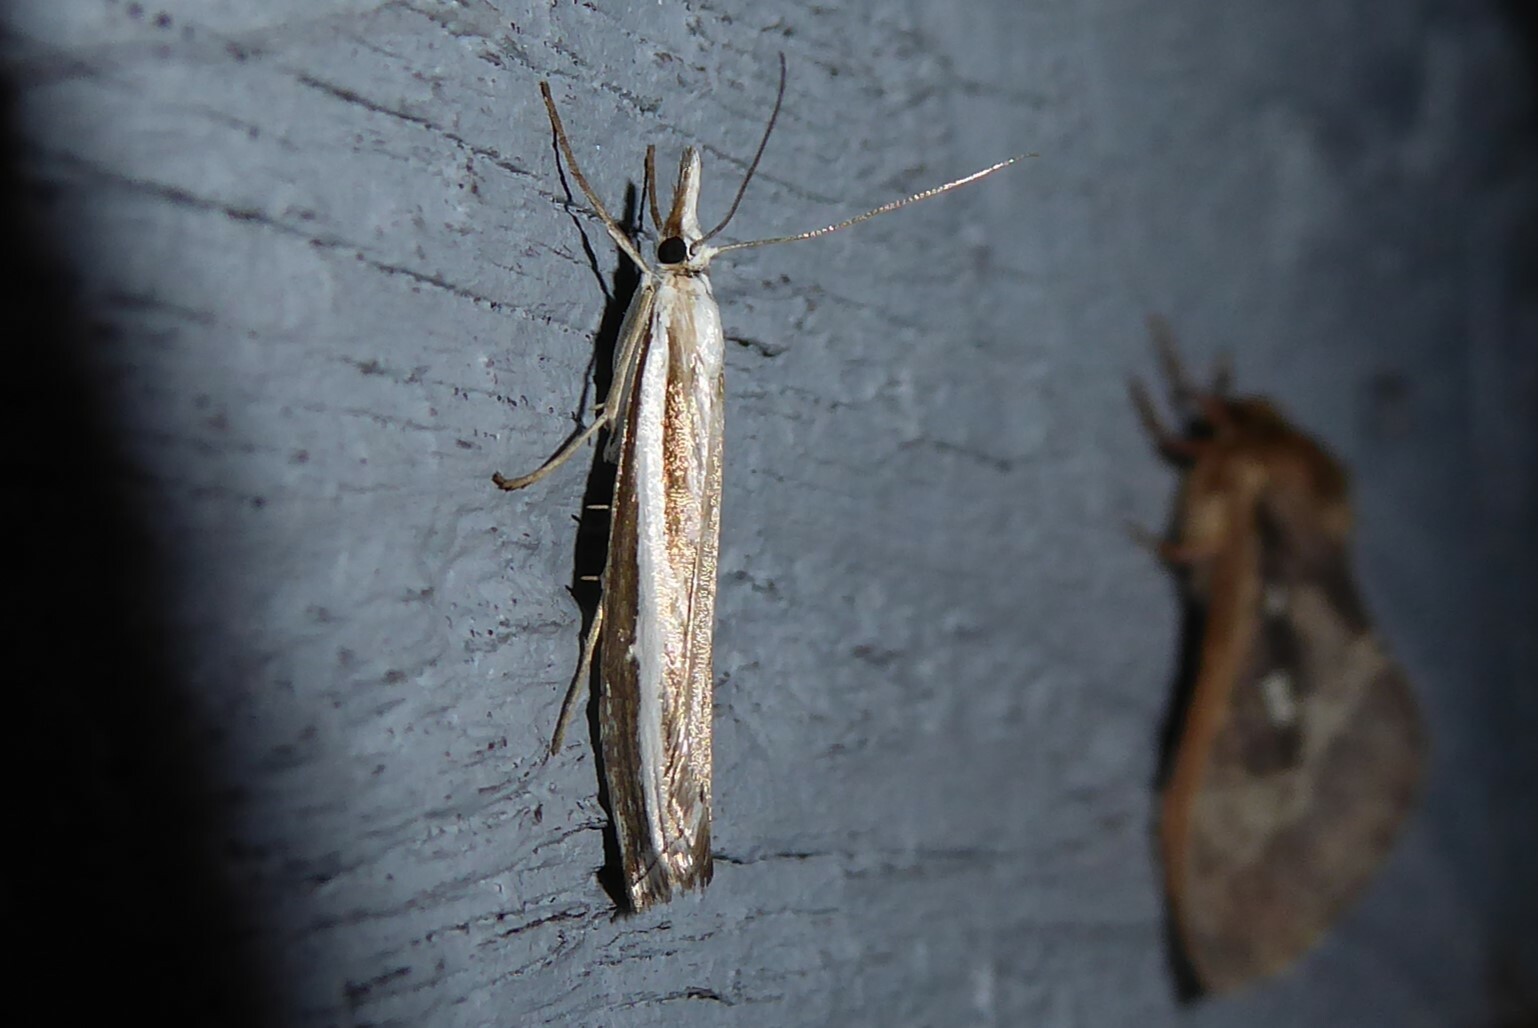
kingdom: Animalia
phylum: Arthropoda
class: Insecta
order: Lepidoptera
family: Crambidae
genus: Orocrambus
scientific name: Orocrambus vittellus
